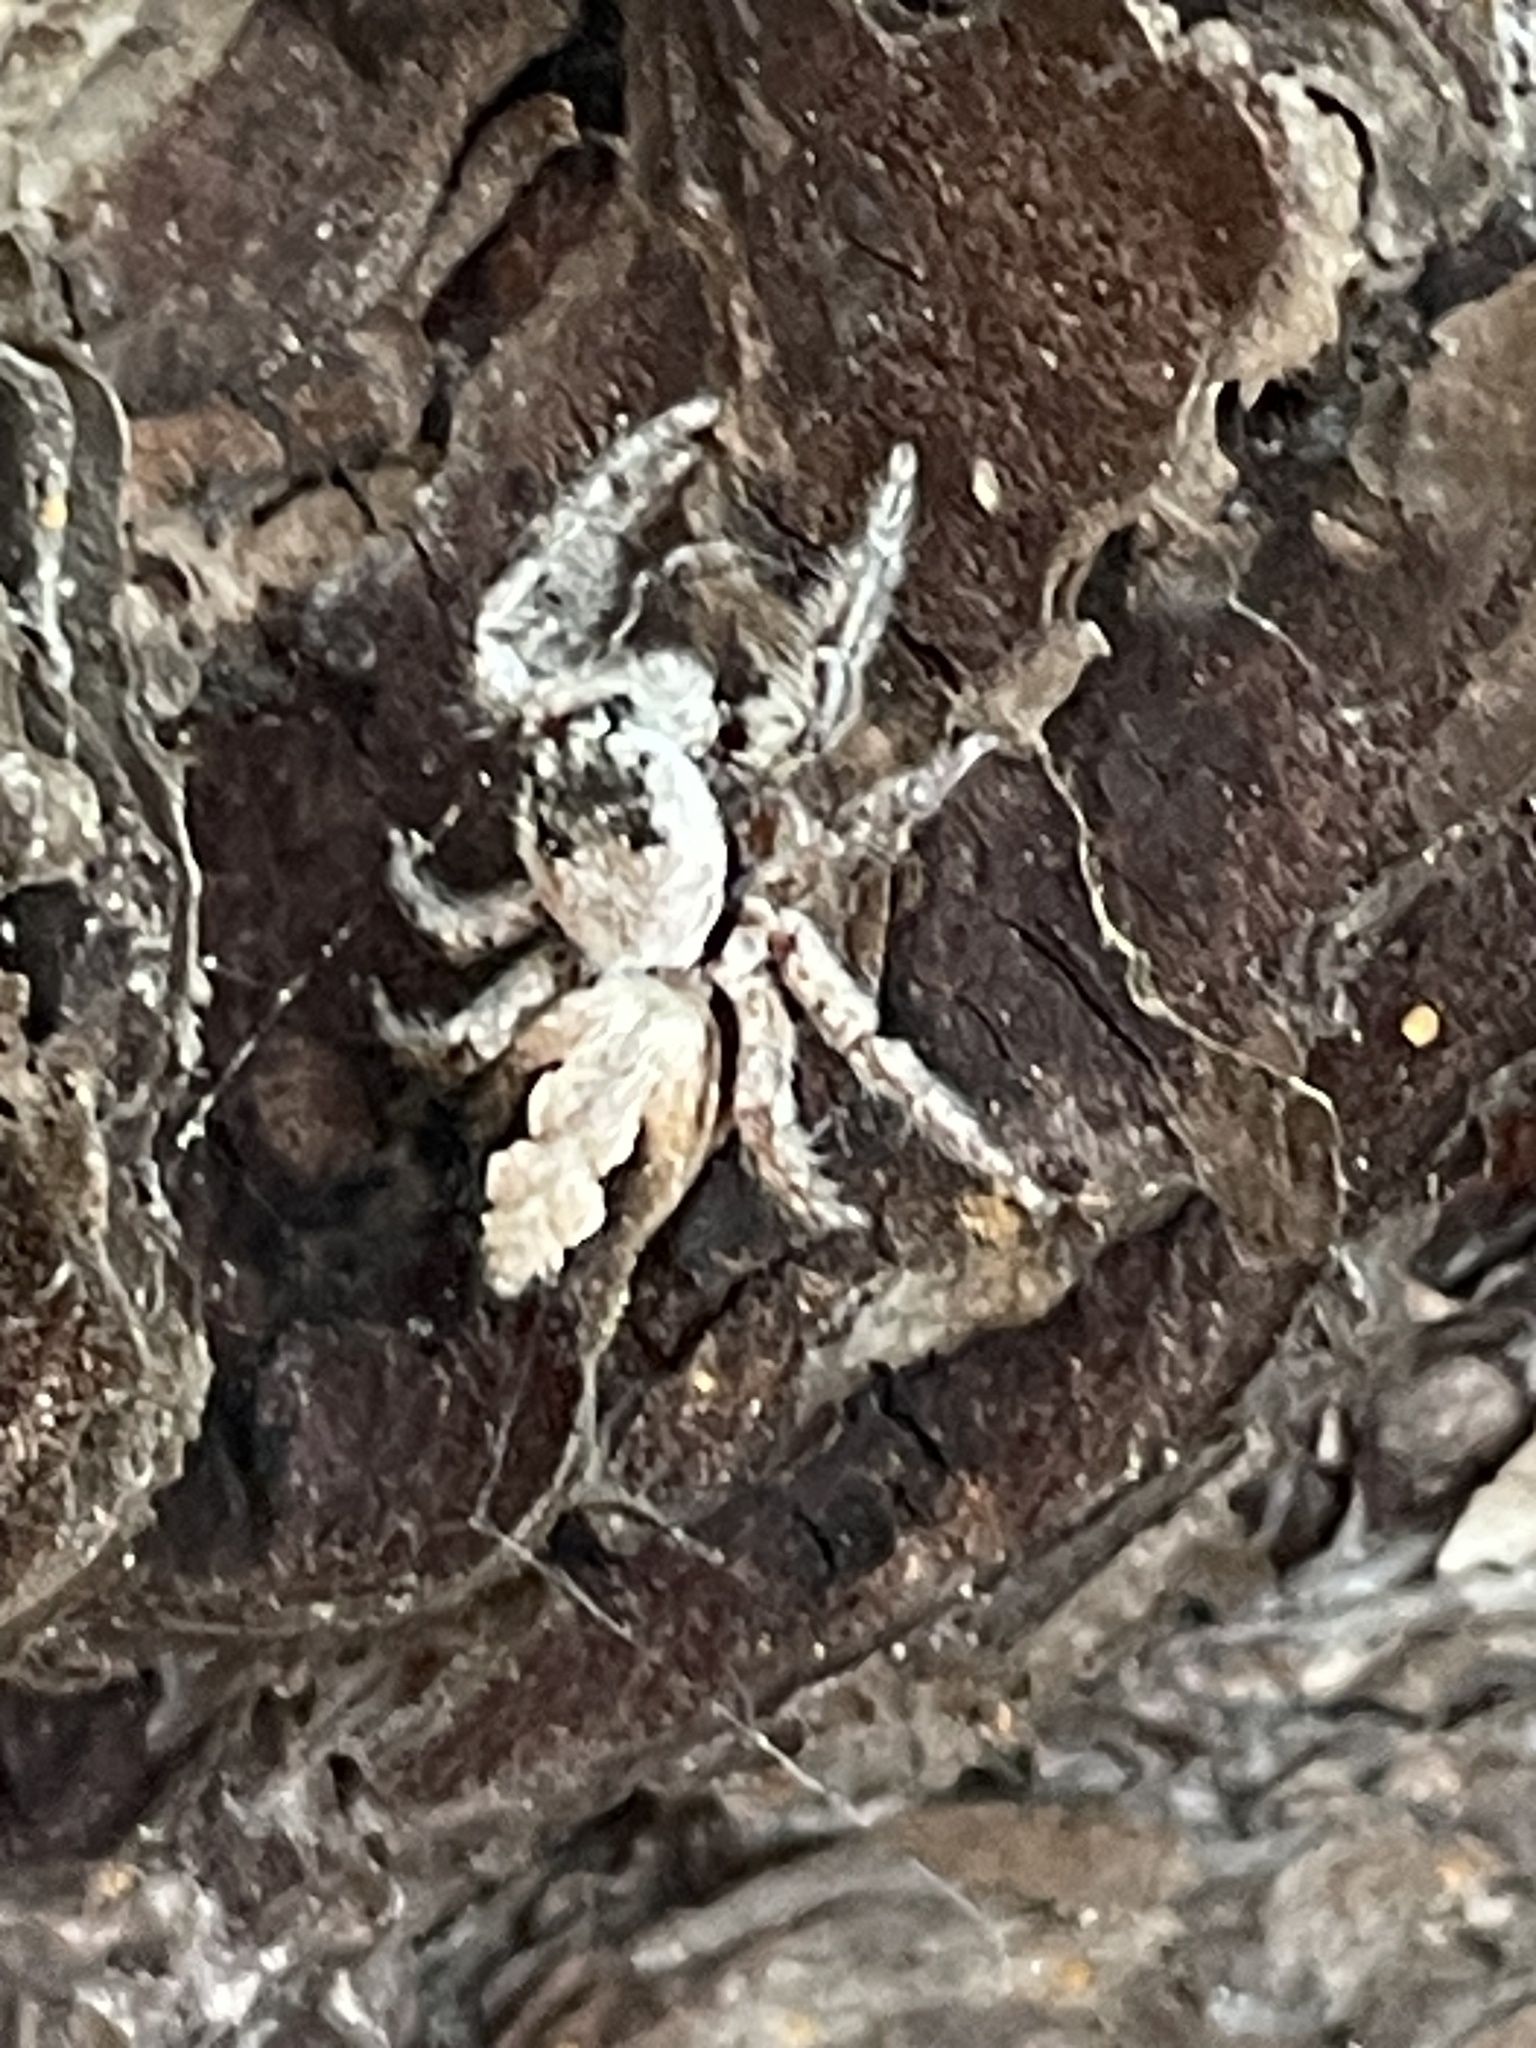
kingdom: Animalia
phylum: Arthropoda
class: Arachnida
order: Araneae
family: Salticidae
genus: Platycryptus
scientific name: Platycryptus undatus
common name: Tan jumping spider
